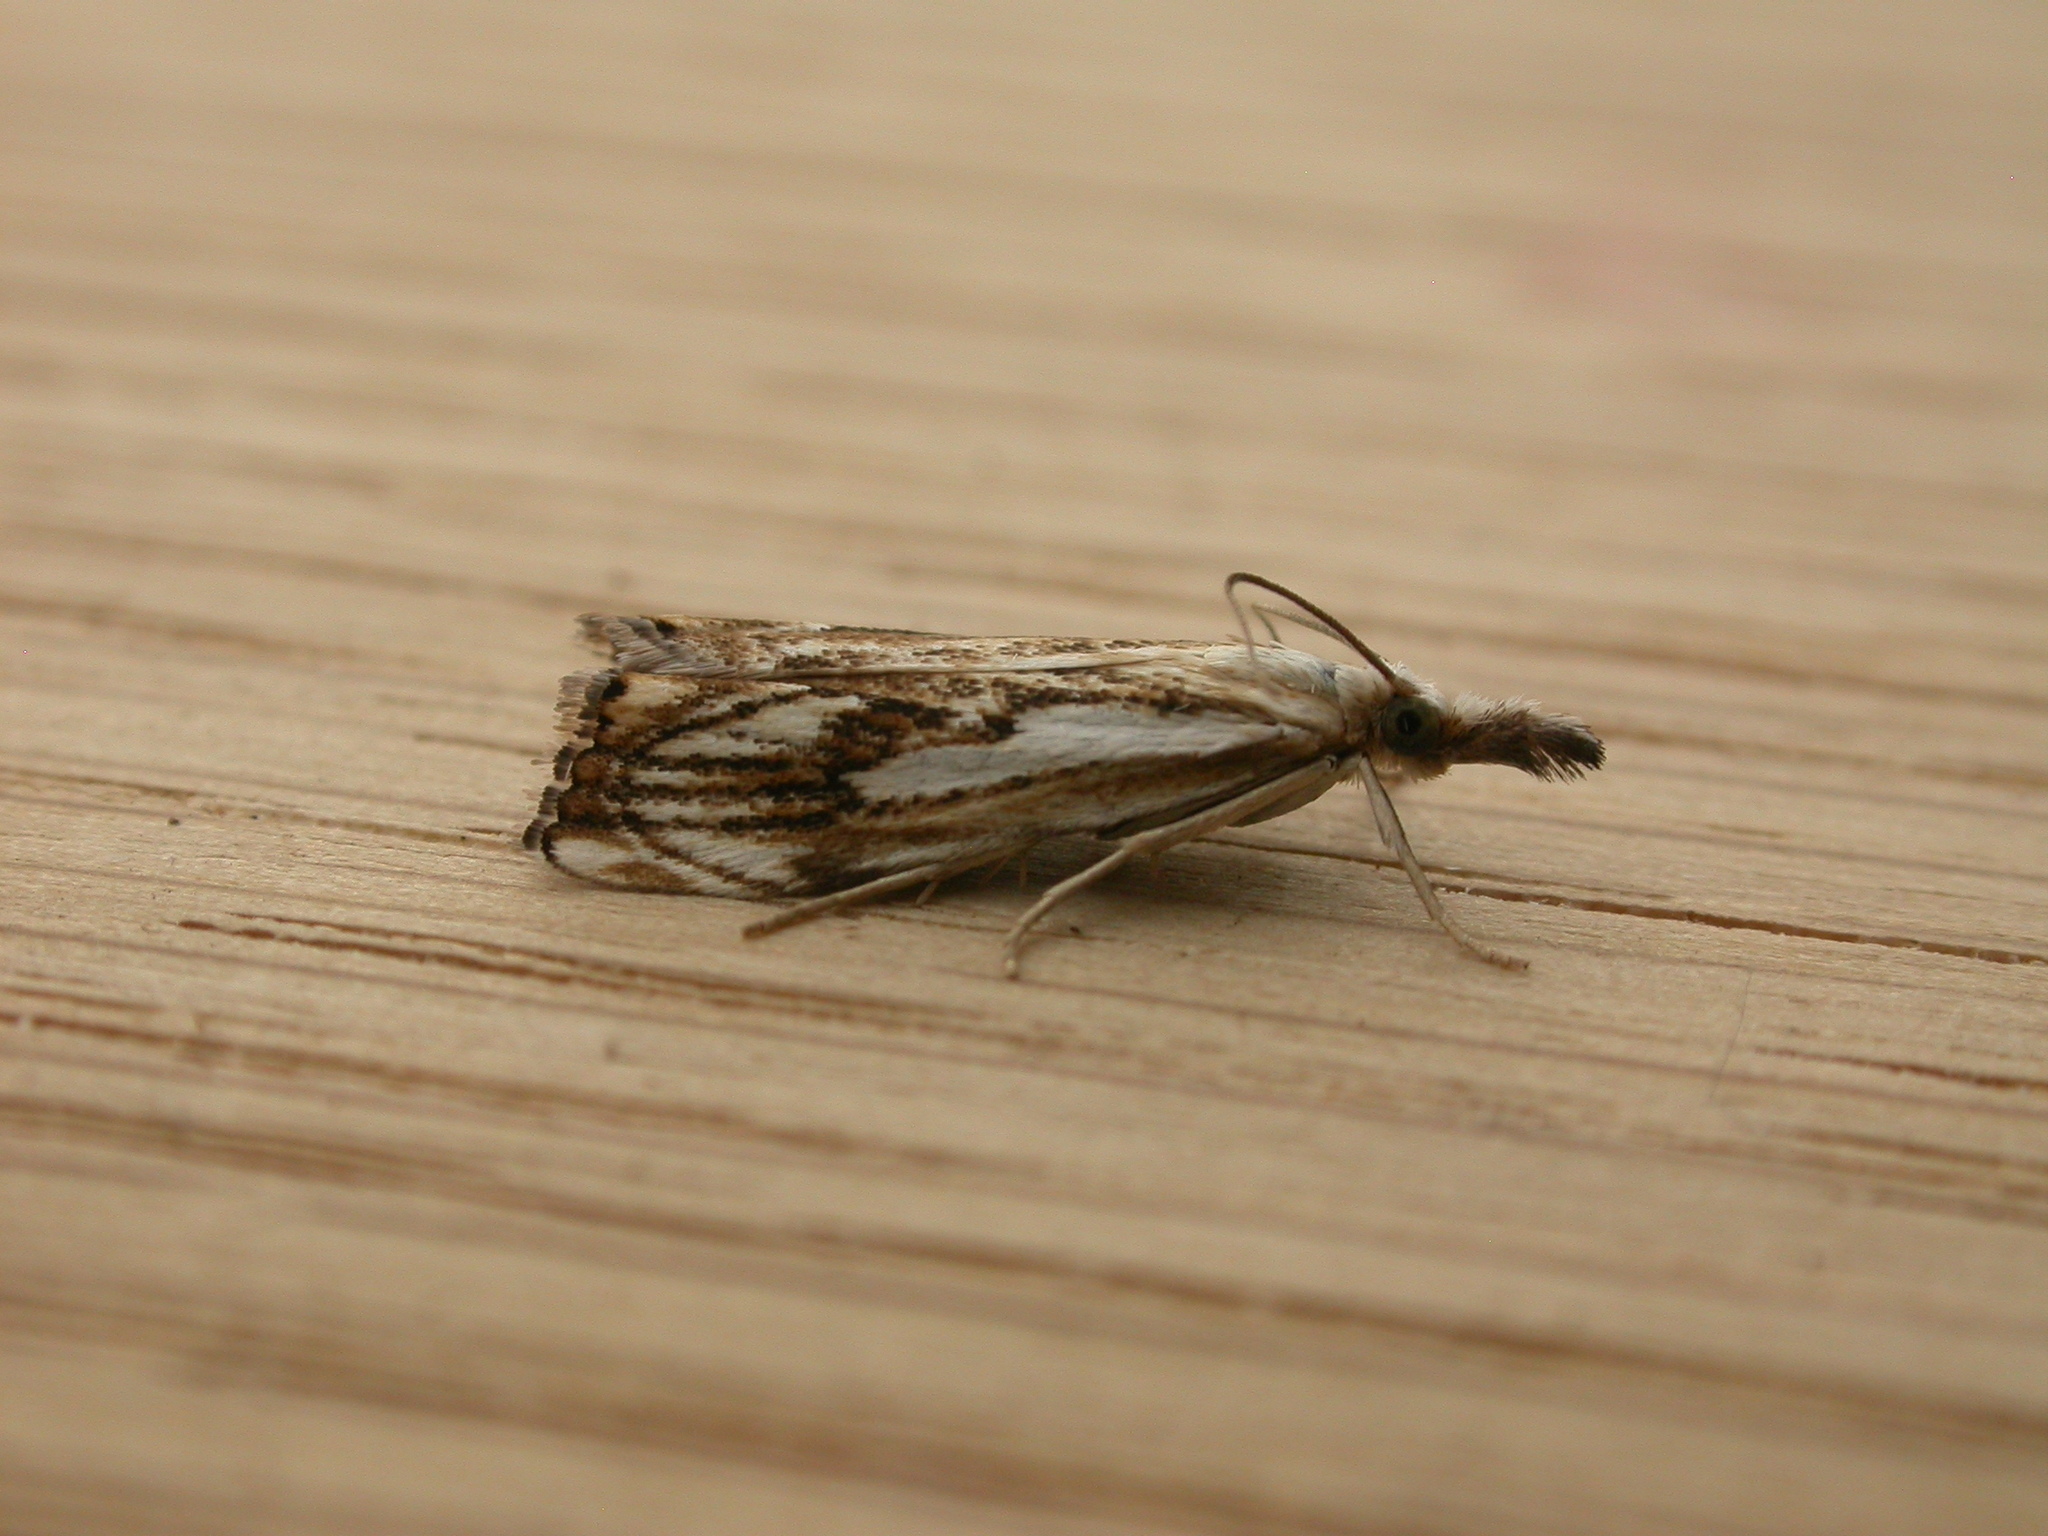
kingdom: Animalia
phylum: Arthropoda
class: Insecta
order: Lepidoptera
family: Crambidae
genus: Catoptria
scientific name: Catoptria falsella
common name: Chequered grass-veneer
